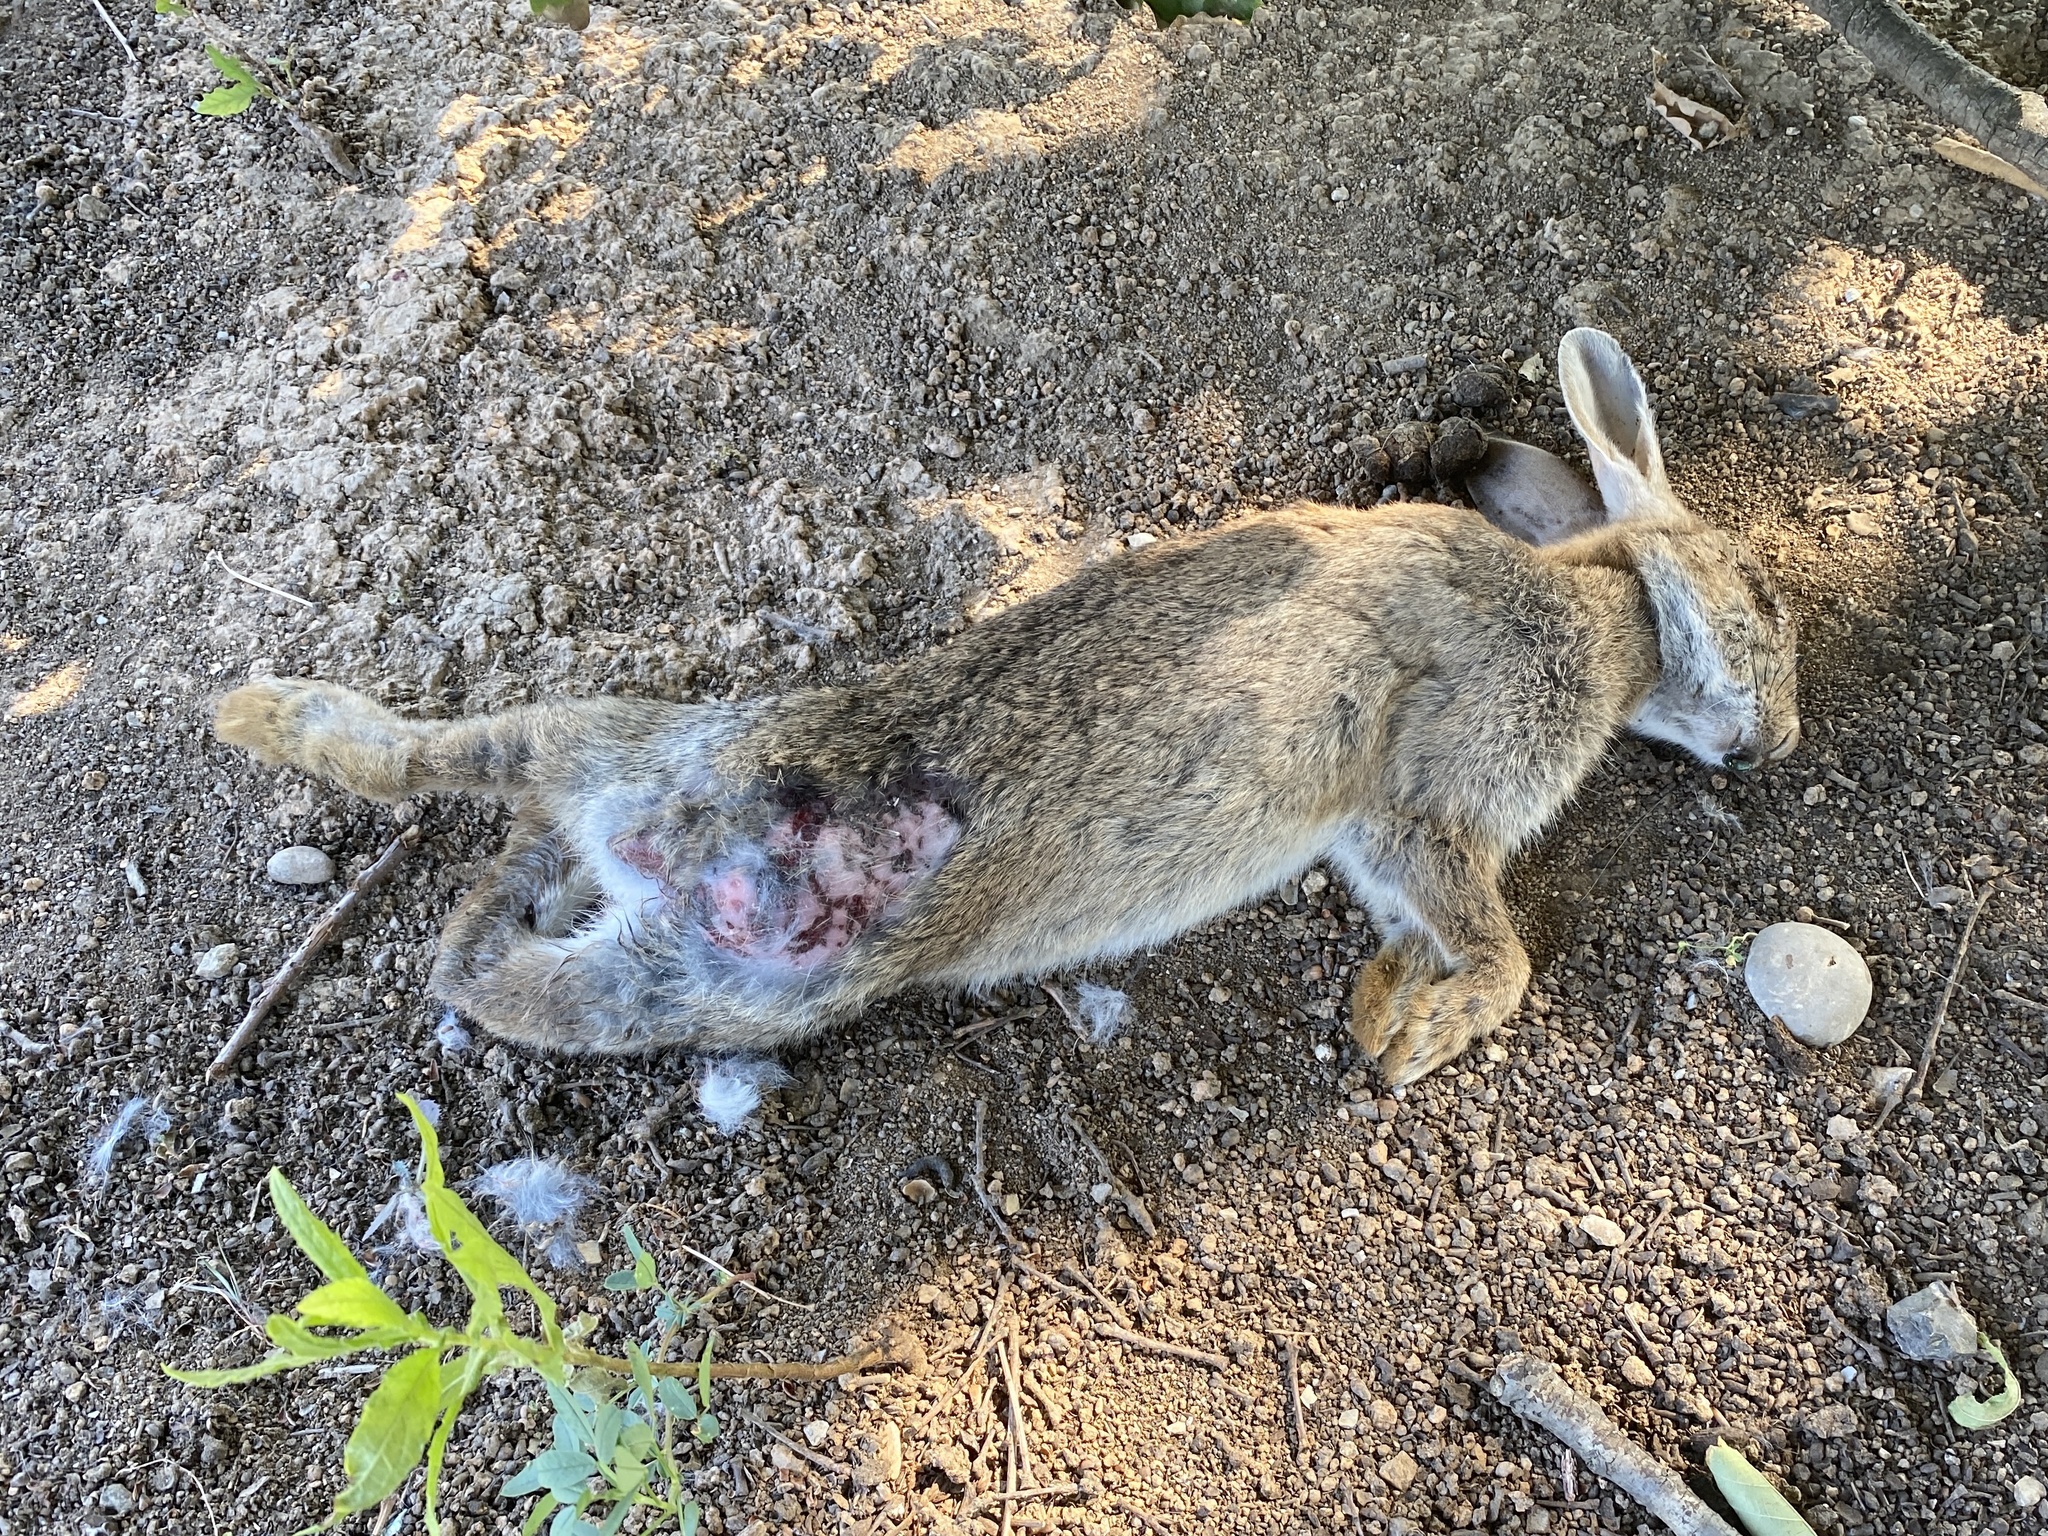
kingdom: Animalia
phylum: Chordata
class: Mammalia
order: Lagomorpha
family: Leporidae
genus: Oryctolagus
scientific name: Oryctolagus cuniculus
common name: European rabbit
